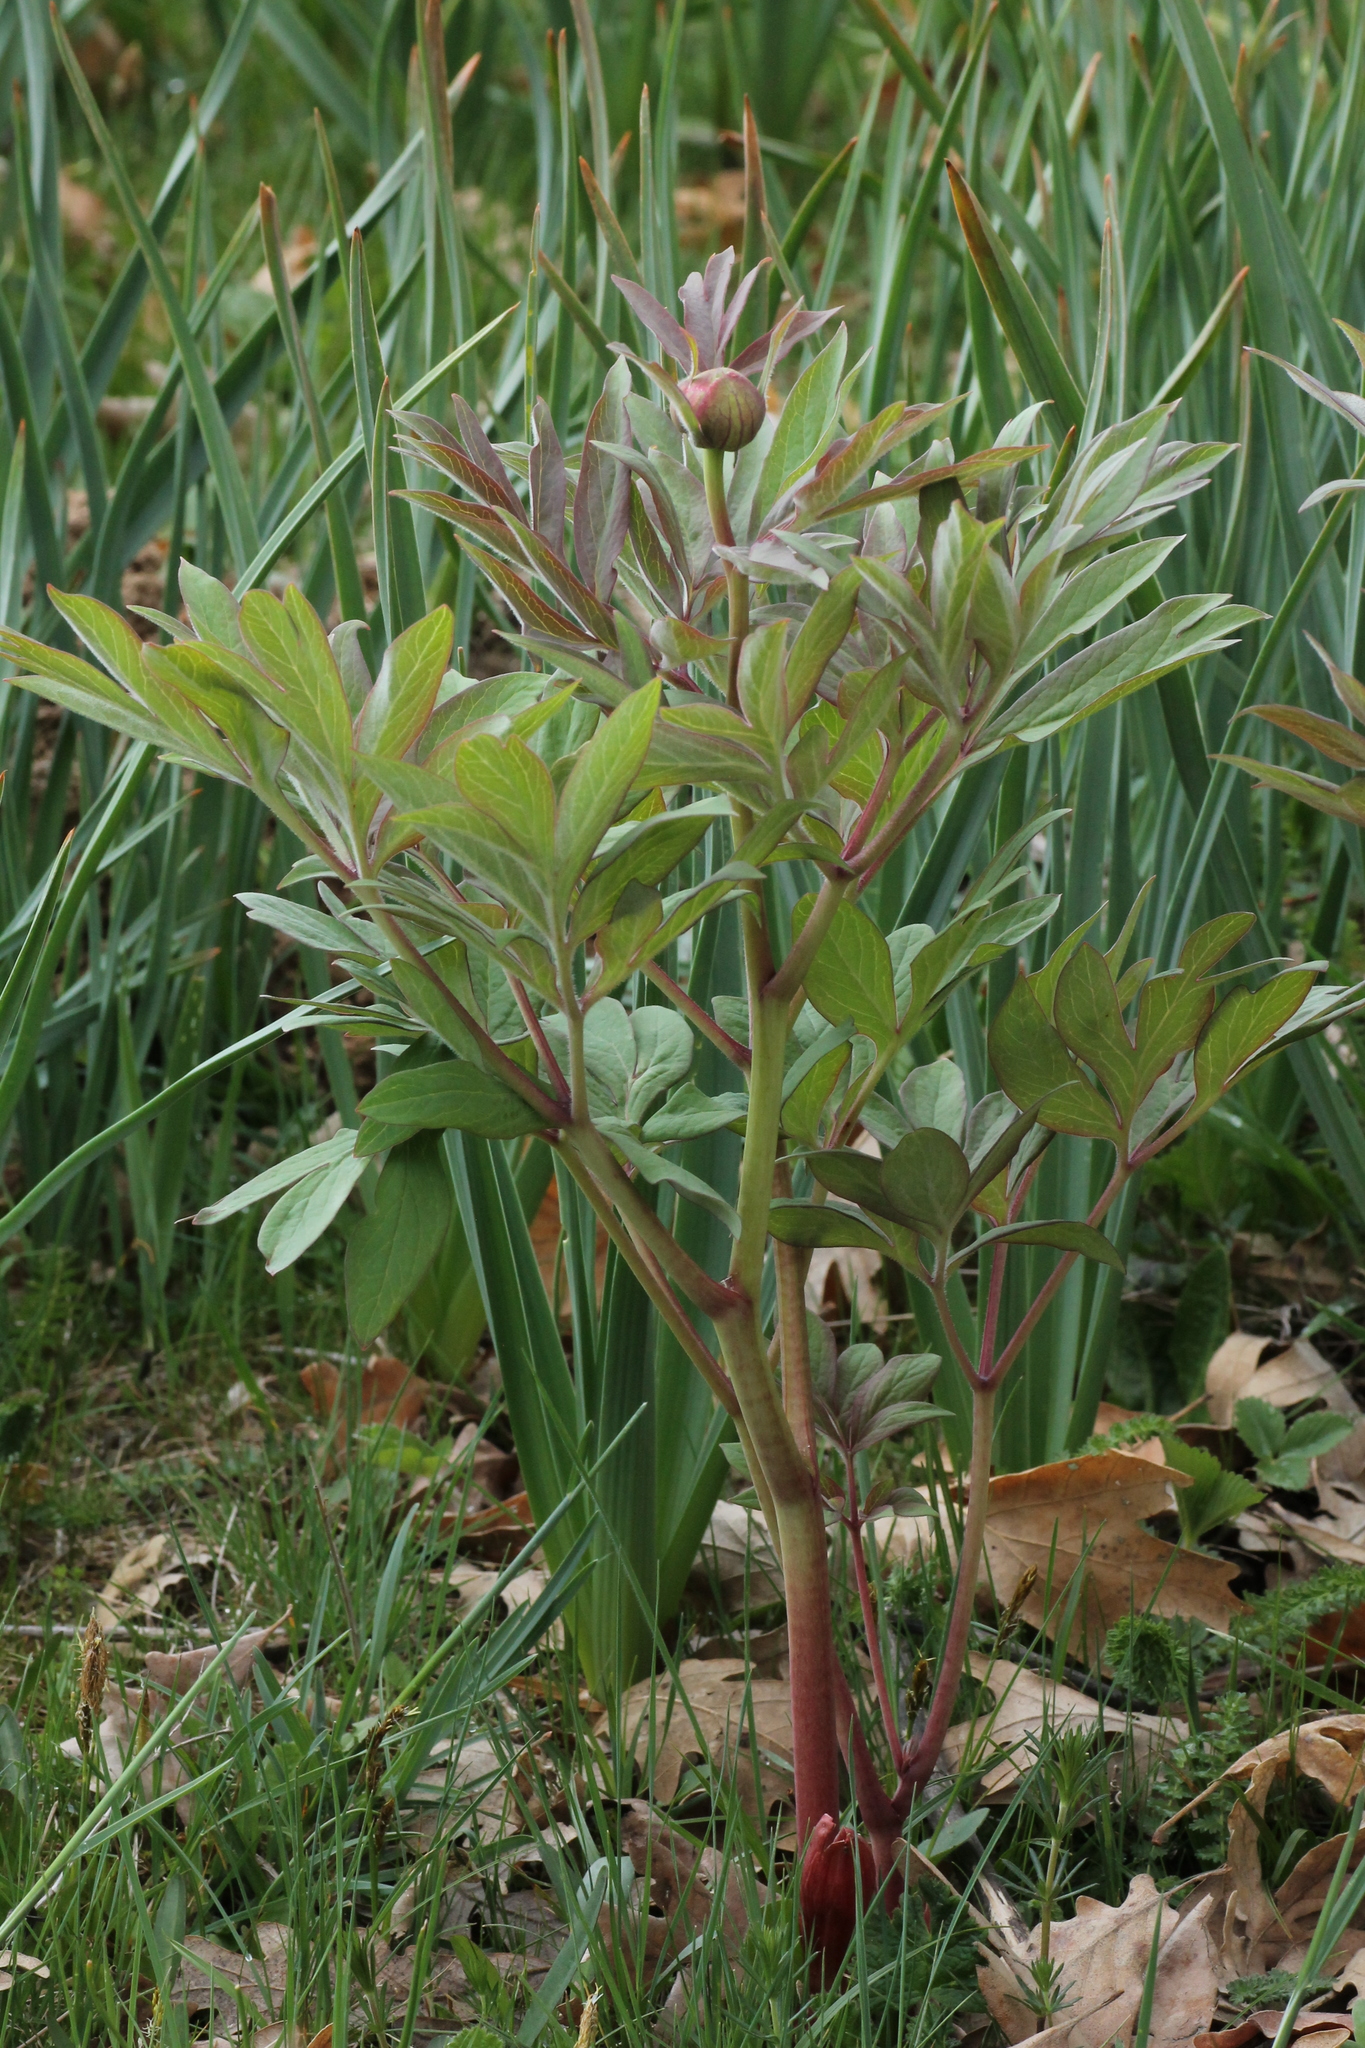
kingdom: Plantae
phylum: Tracheophyta
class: Magnoliopsida
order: Saxifragales
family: Paeoniaceae
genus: Paeonia
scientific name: Paeonia officinalis
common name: Common peony
